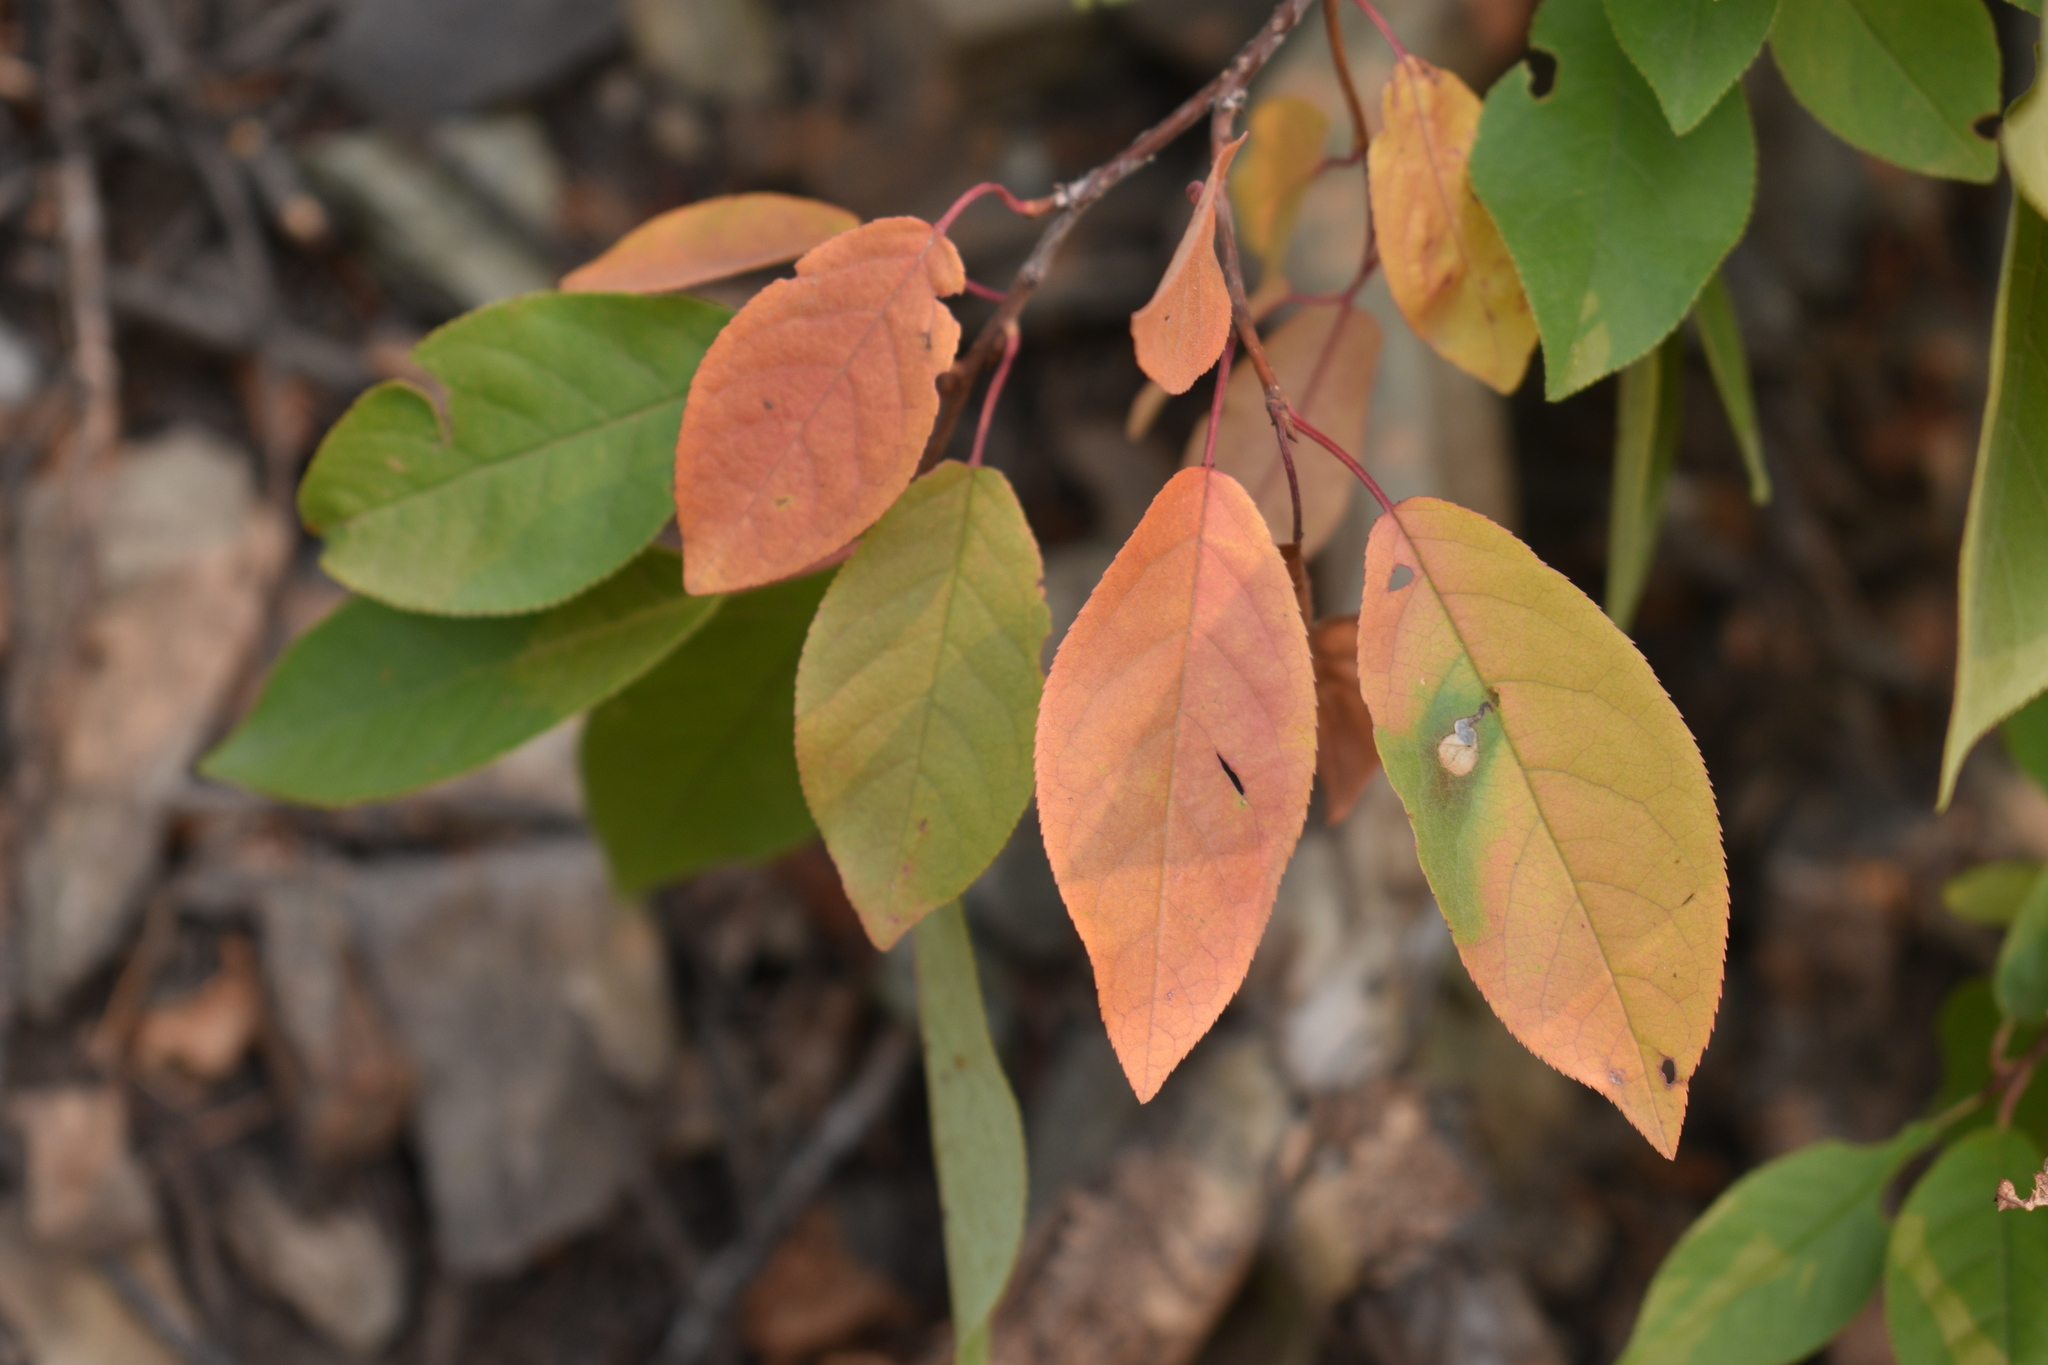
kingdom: Plantae
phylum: Tracheophyta
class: Magnoliopsida
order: Rosales
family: Rosaceae
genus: Prunus
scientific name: Prunus virginiana
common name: Chokecherry
